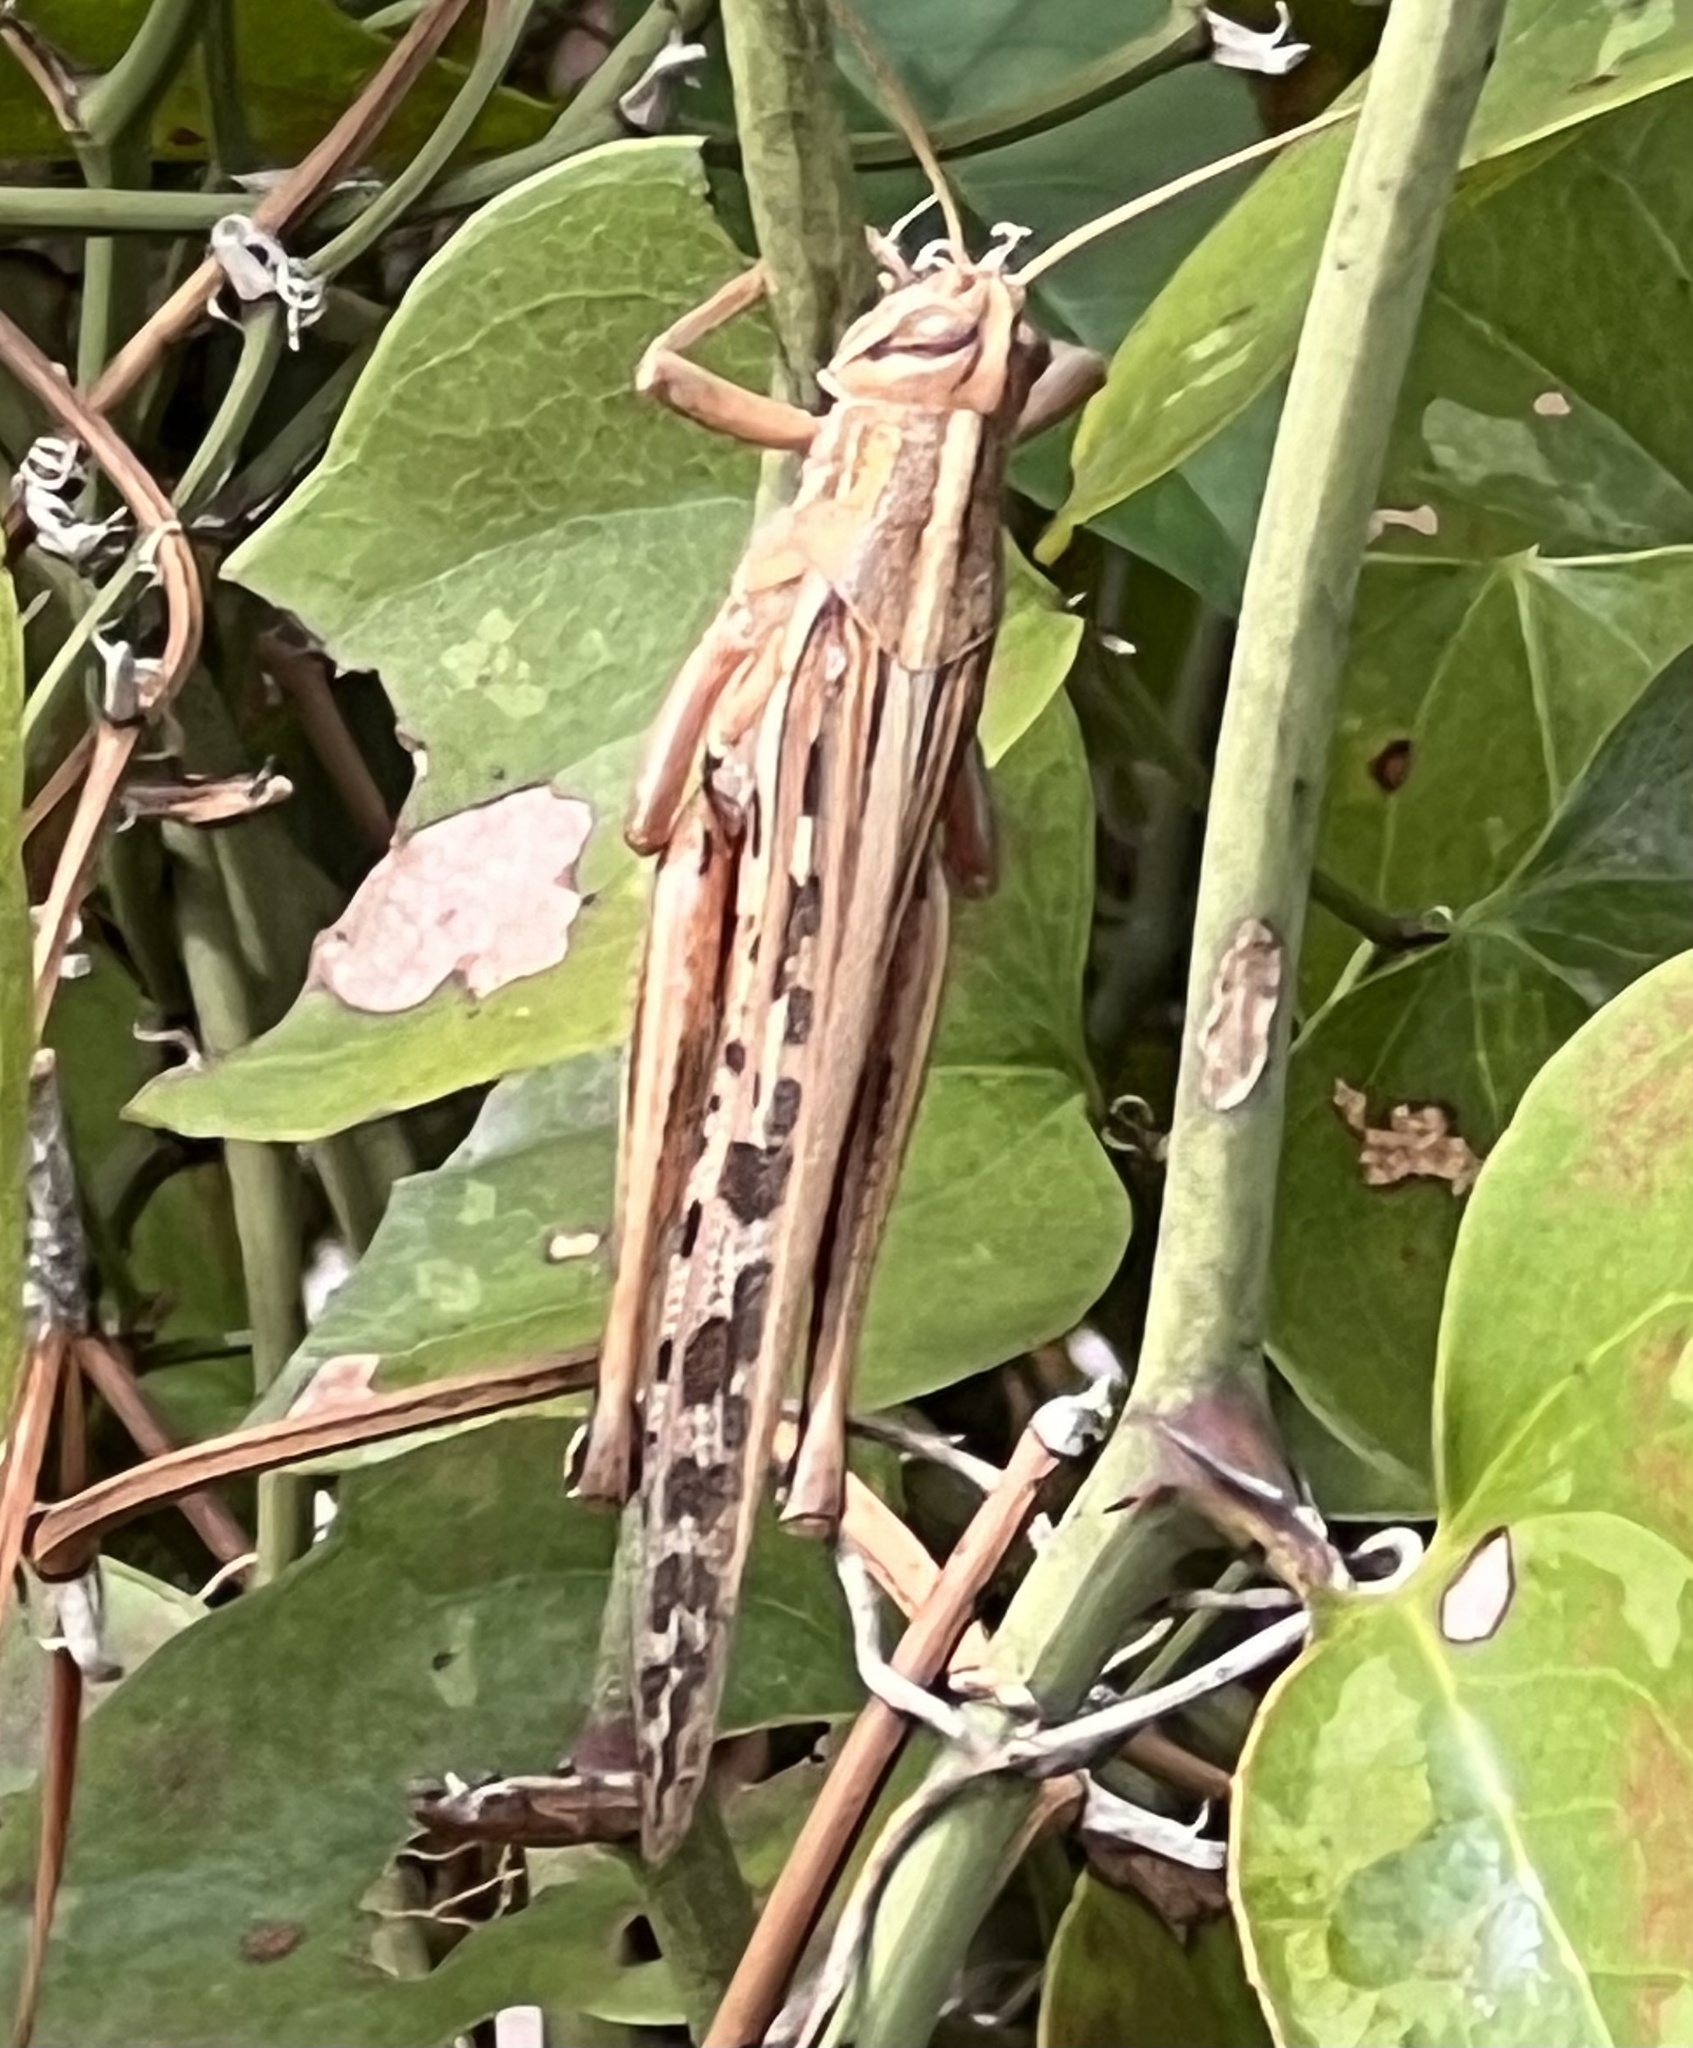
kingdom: Animalia
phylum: Arthropoda
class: Insecta
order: Orthoptera
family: Acrididae
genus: Schistocerca
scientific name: Schistocerca americana
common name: American bird locust
